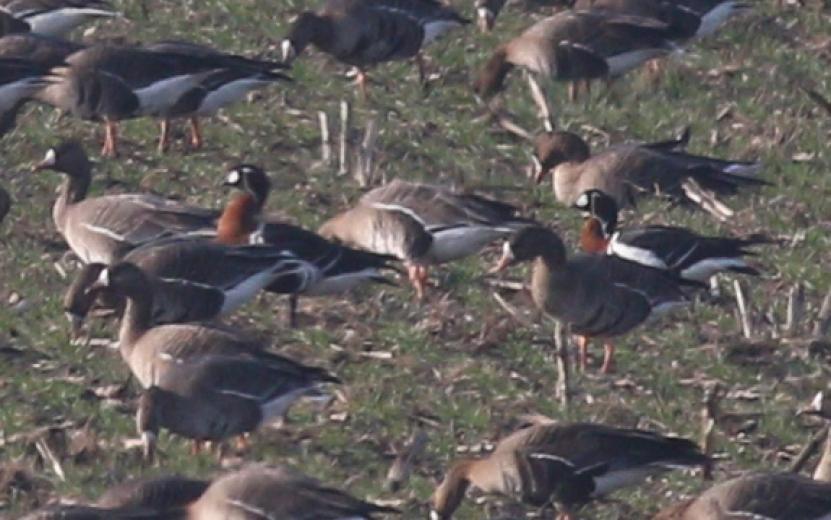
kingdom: Animalia
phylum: Chordata
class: Aves
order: Anseriformes
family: Anatidae
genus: Branta
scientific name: Branta ruficollis
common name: Red-breasted goose
